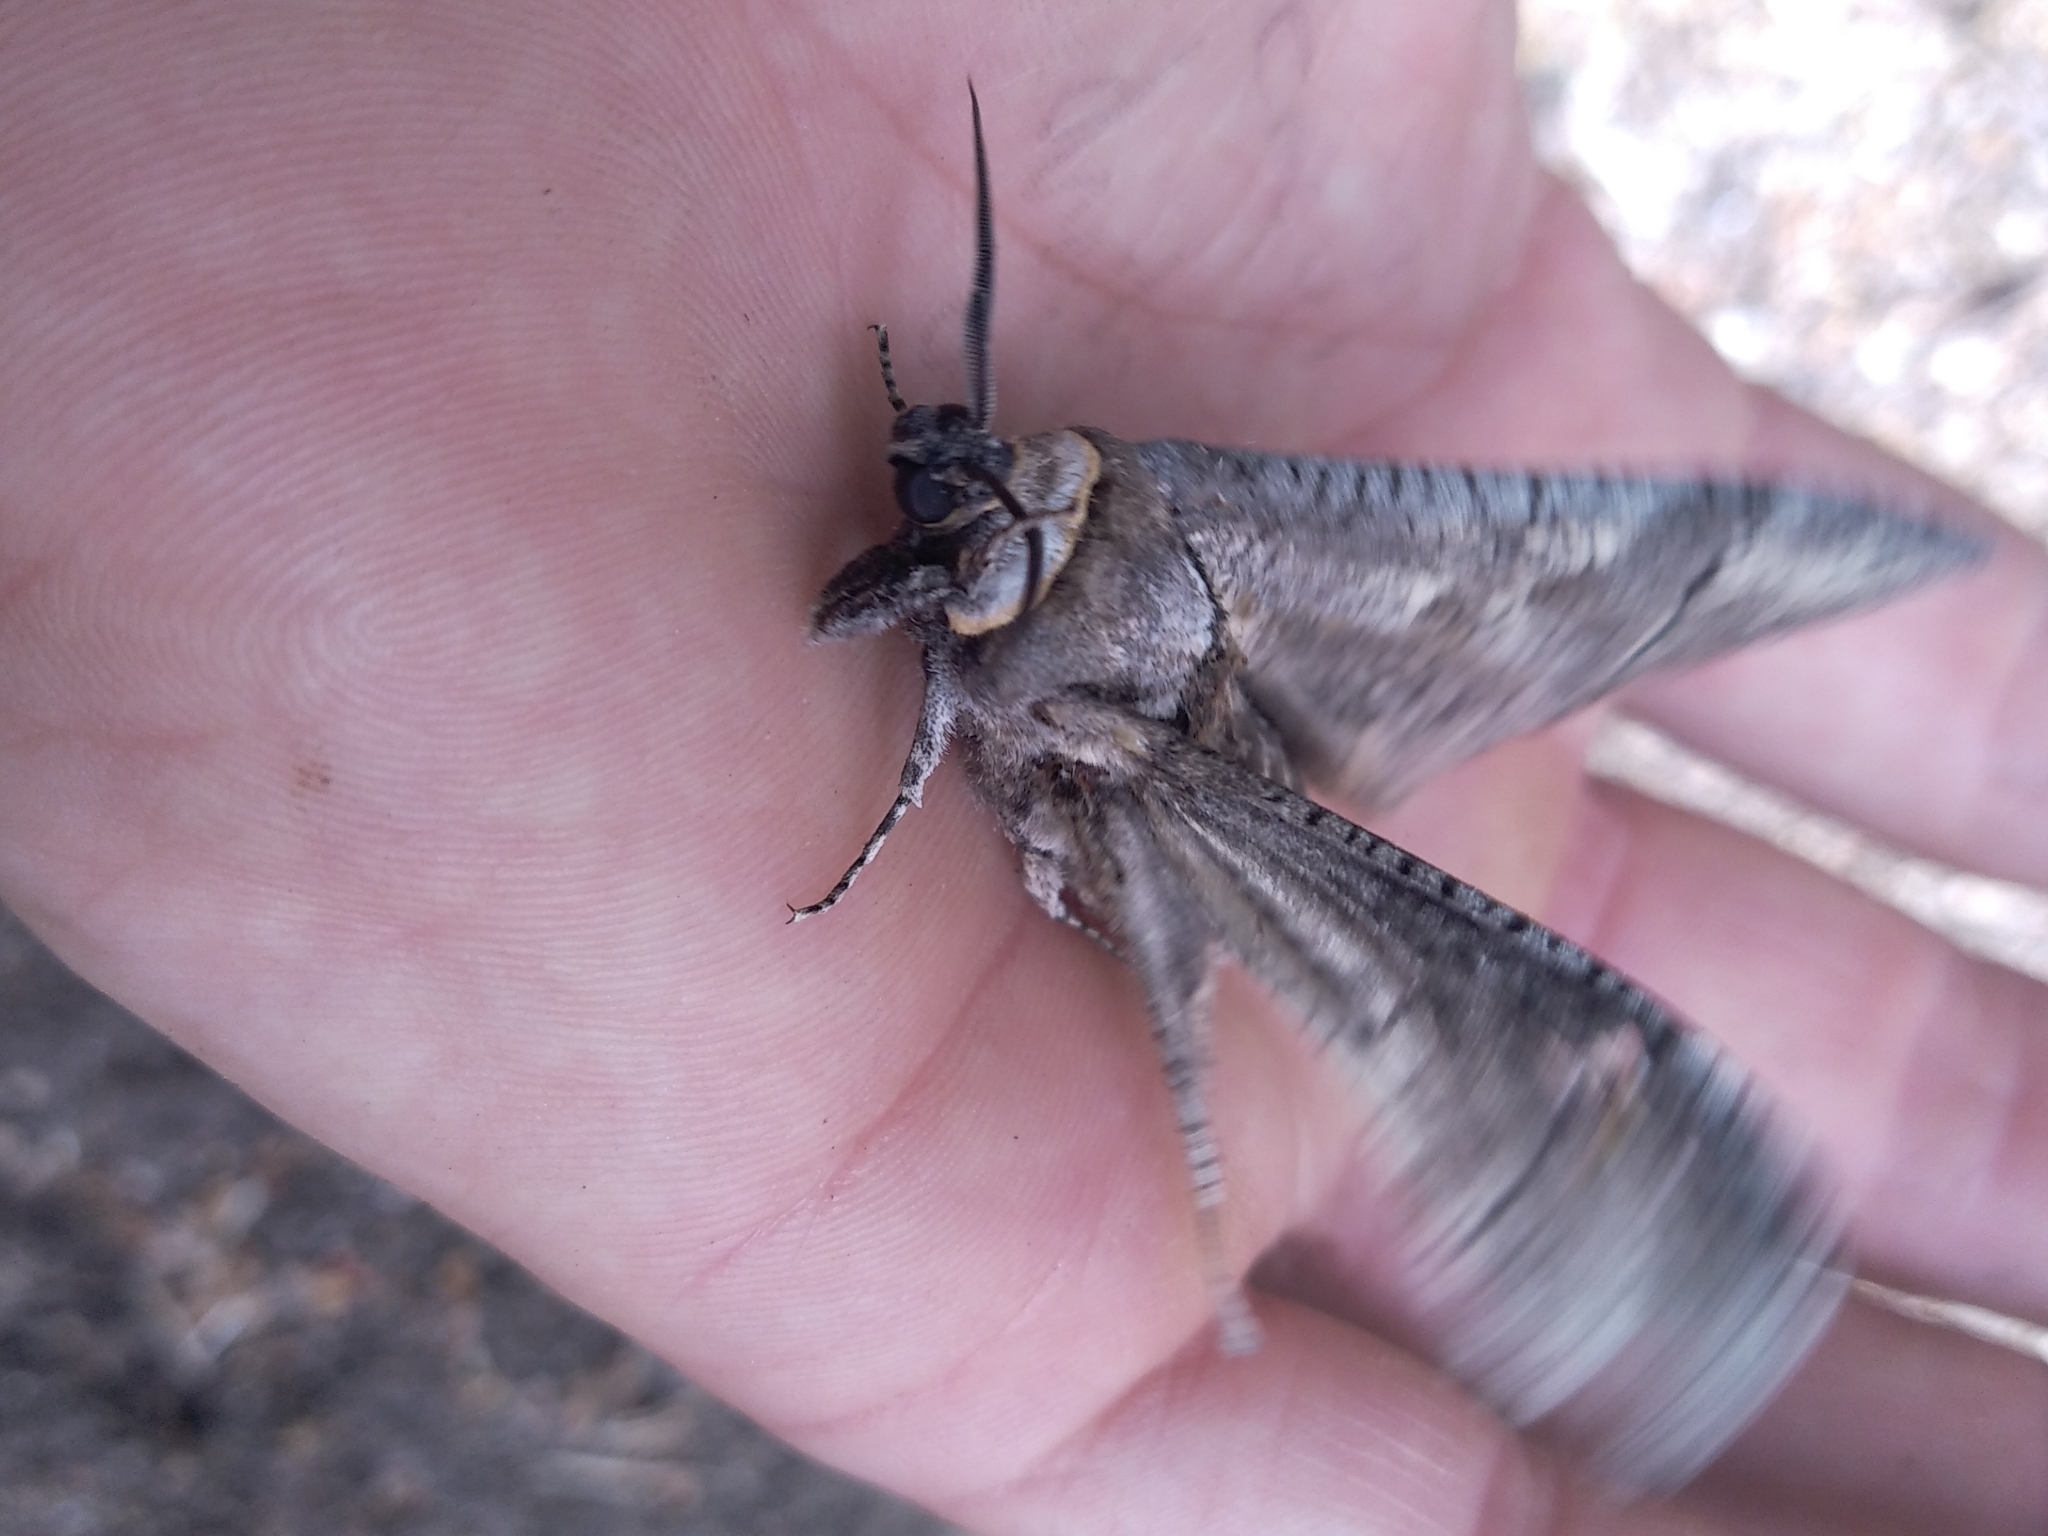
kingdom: Animalia
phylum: Arthropoda
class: Insecta
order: Lepidoptera
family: Cossidae
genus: Cossus
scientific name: Cossus cossus
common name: Goat moth
